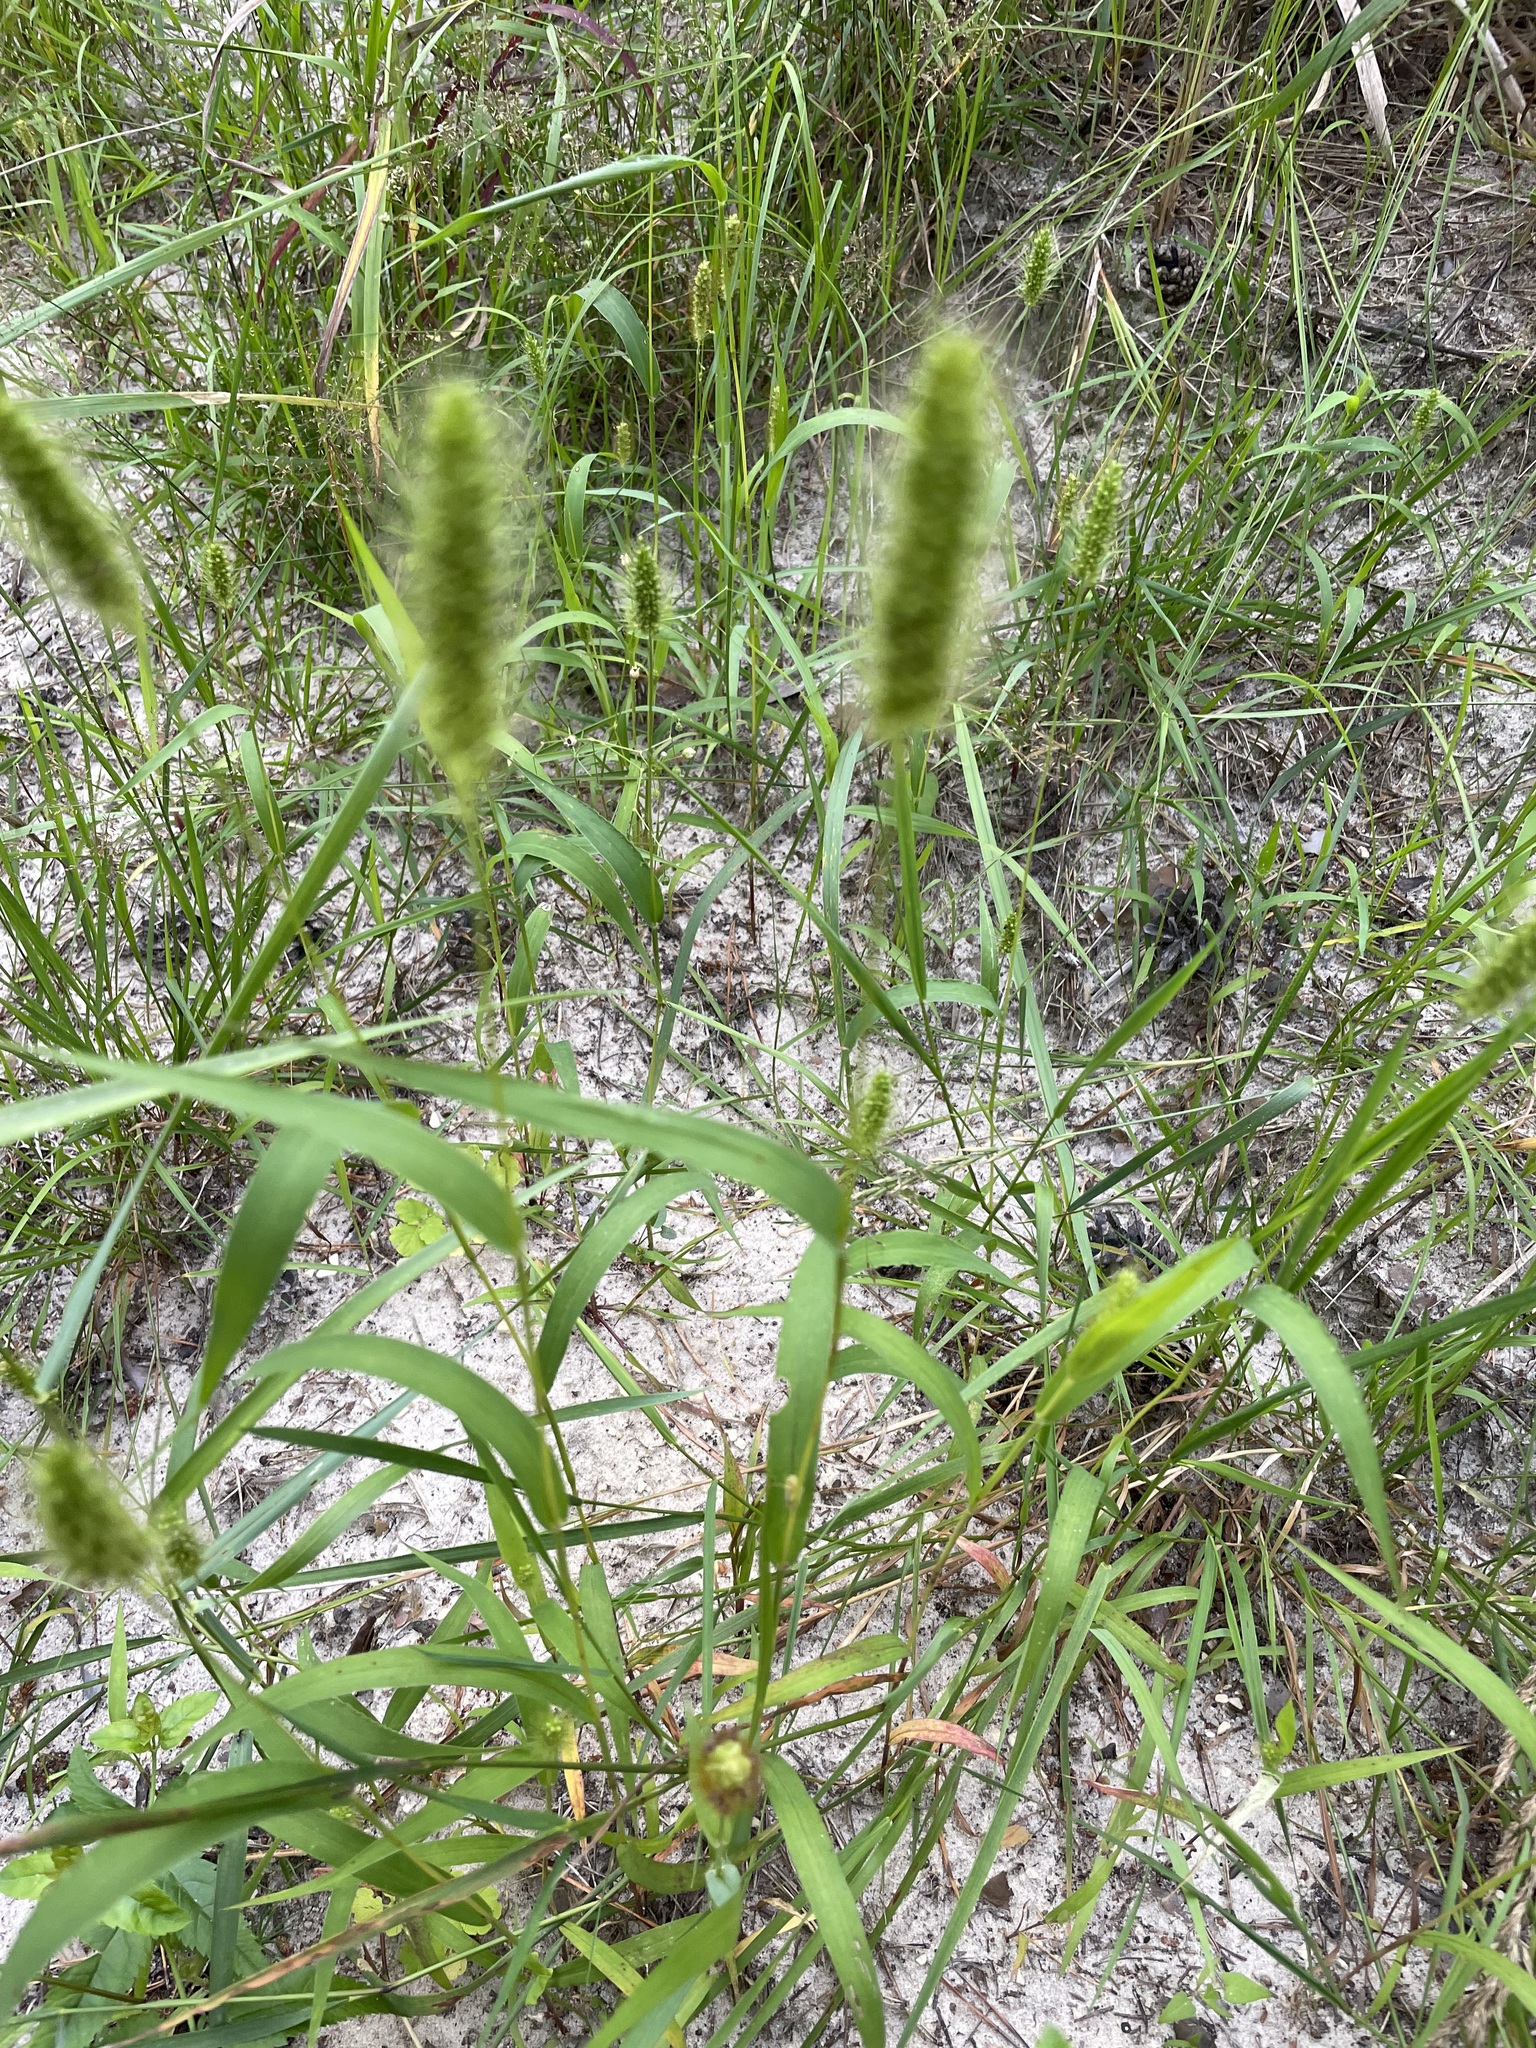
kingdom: Plantae
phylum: Tracheophyta
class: Liliopsida
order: Poales
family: Poaceae
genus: Setaria
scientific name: Setaria viridis
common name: Green bristlegrass
